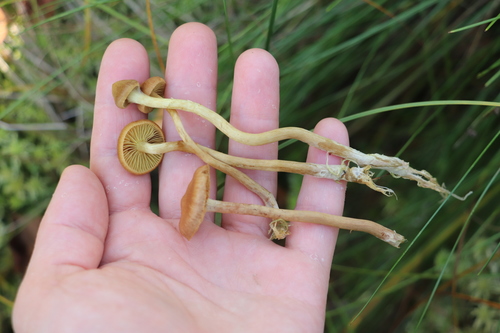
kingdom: Fungi
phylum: Basidiomycota
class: Agaricomycetes
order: Agaricales
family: Cortinariaceae
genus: Cortinarius
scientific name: Cortinarius tubarius
